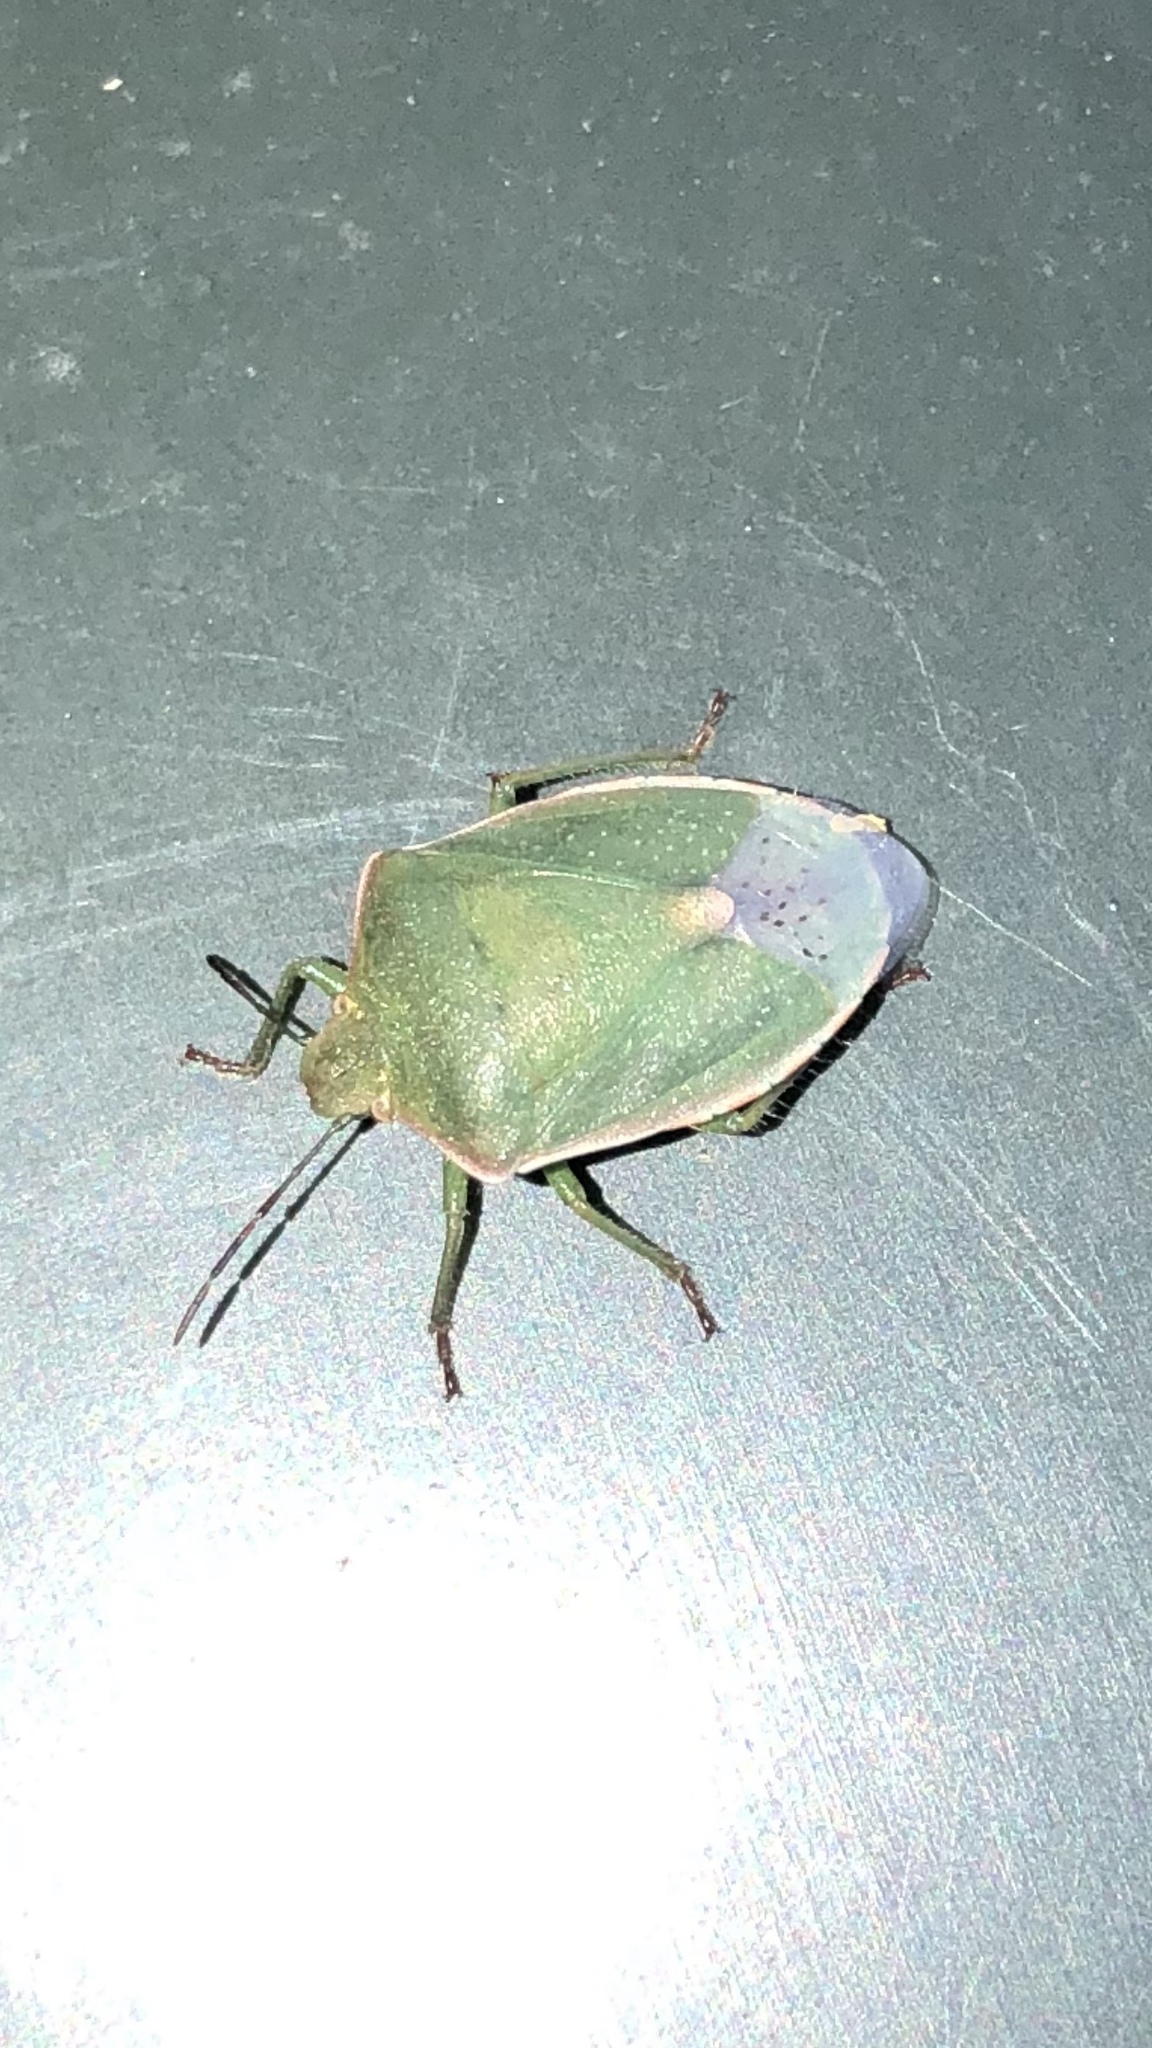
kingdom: Animalia
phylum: Arthropoda
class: Insecta
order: Hemiptera
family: Pentatomidae
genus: Thyanta
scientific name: Thyanta custator
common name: Stink bug
